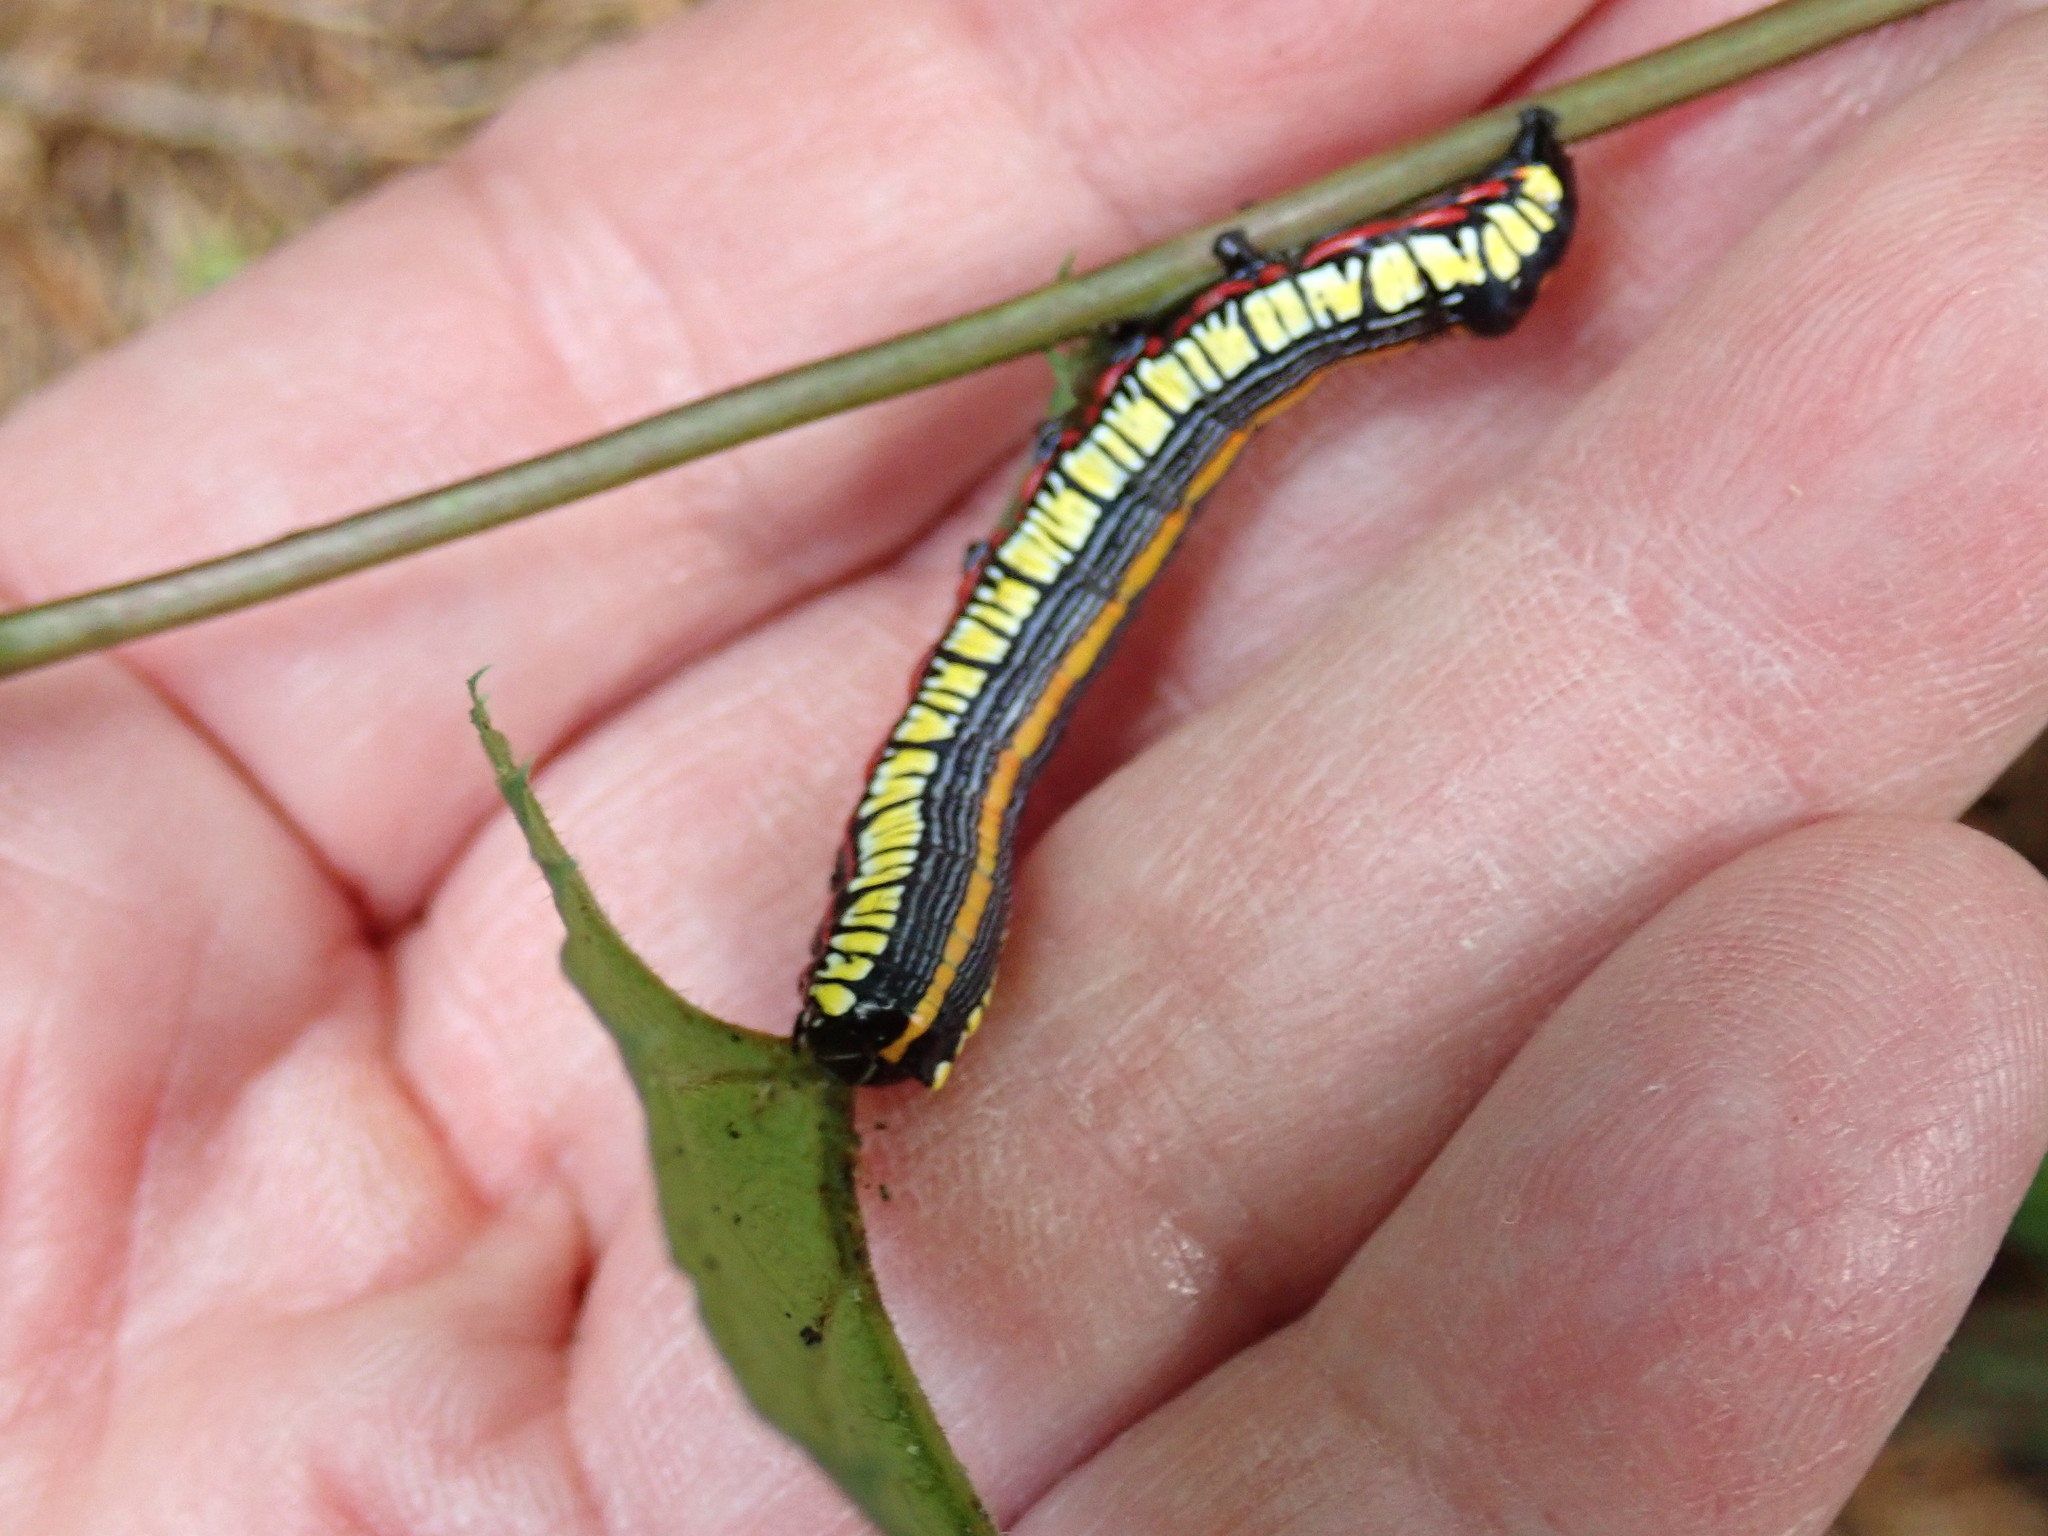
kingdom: Animalia
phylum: Arthropoda
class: Insecta
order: Lepidoptera
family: Noctuidae
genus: Cucullia
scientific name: Cucullia convexipennis
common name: Brown-hooded owlet
